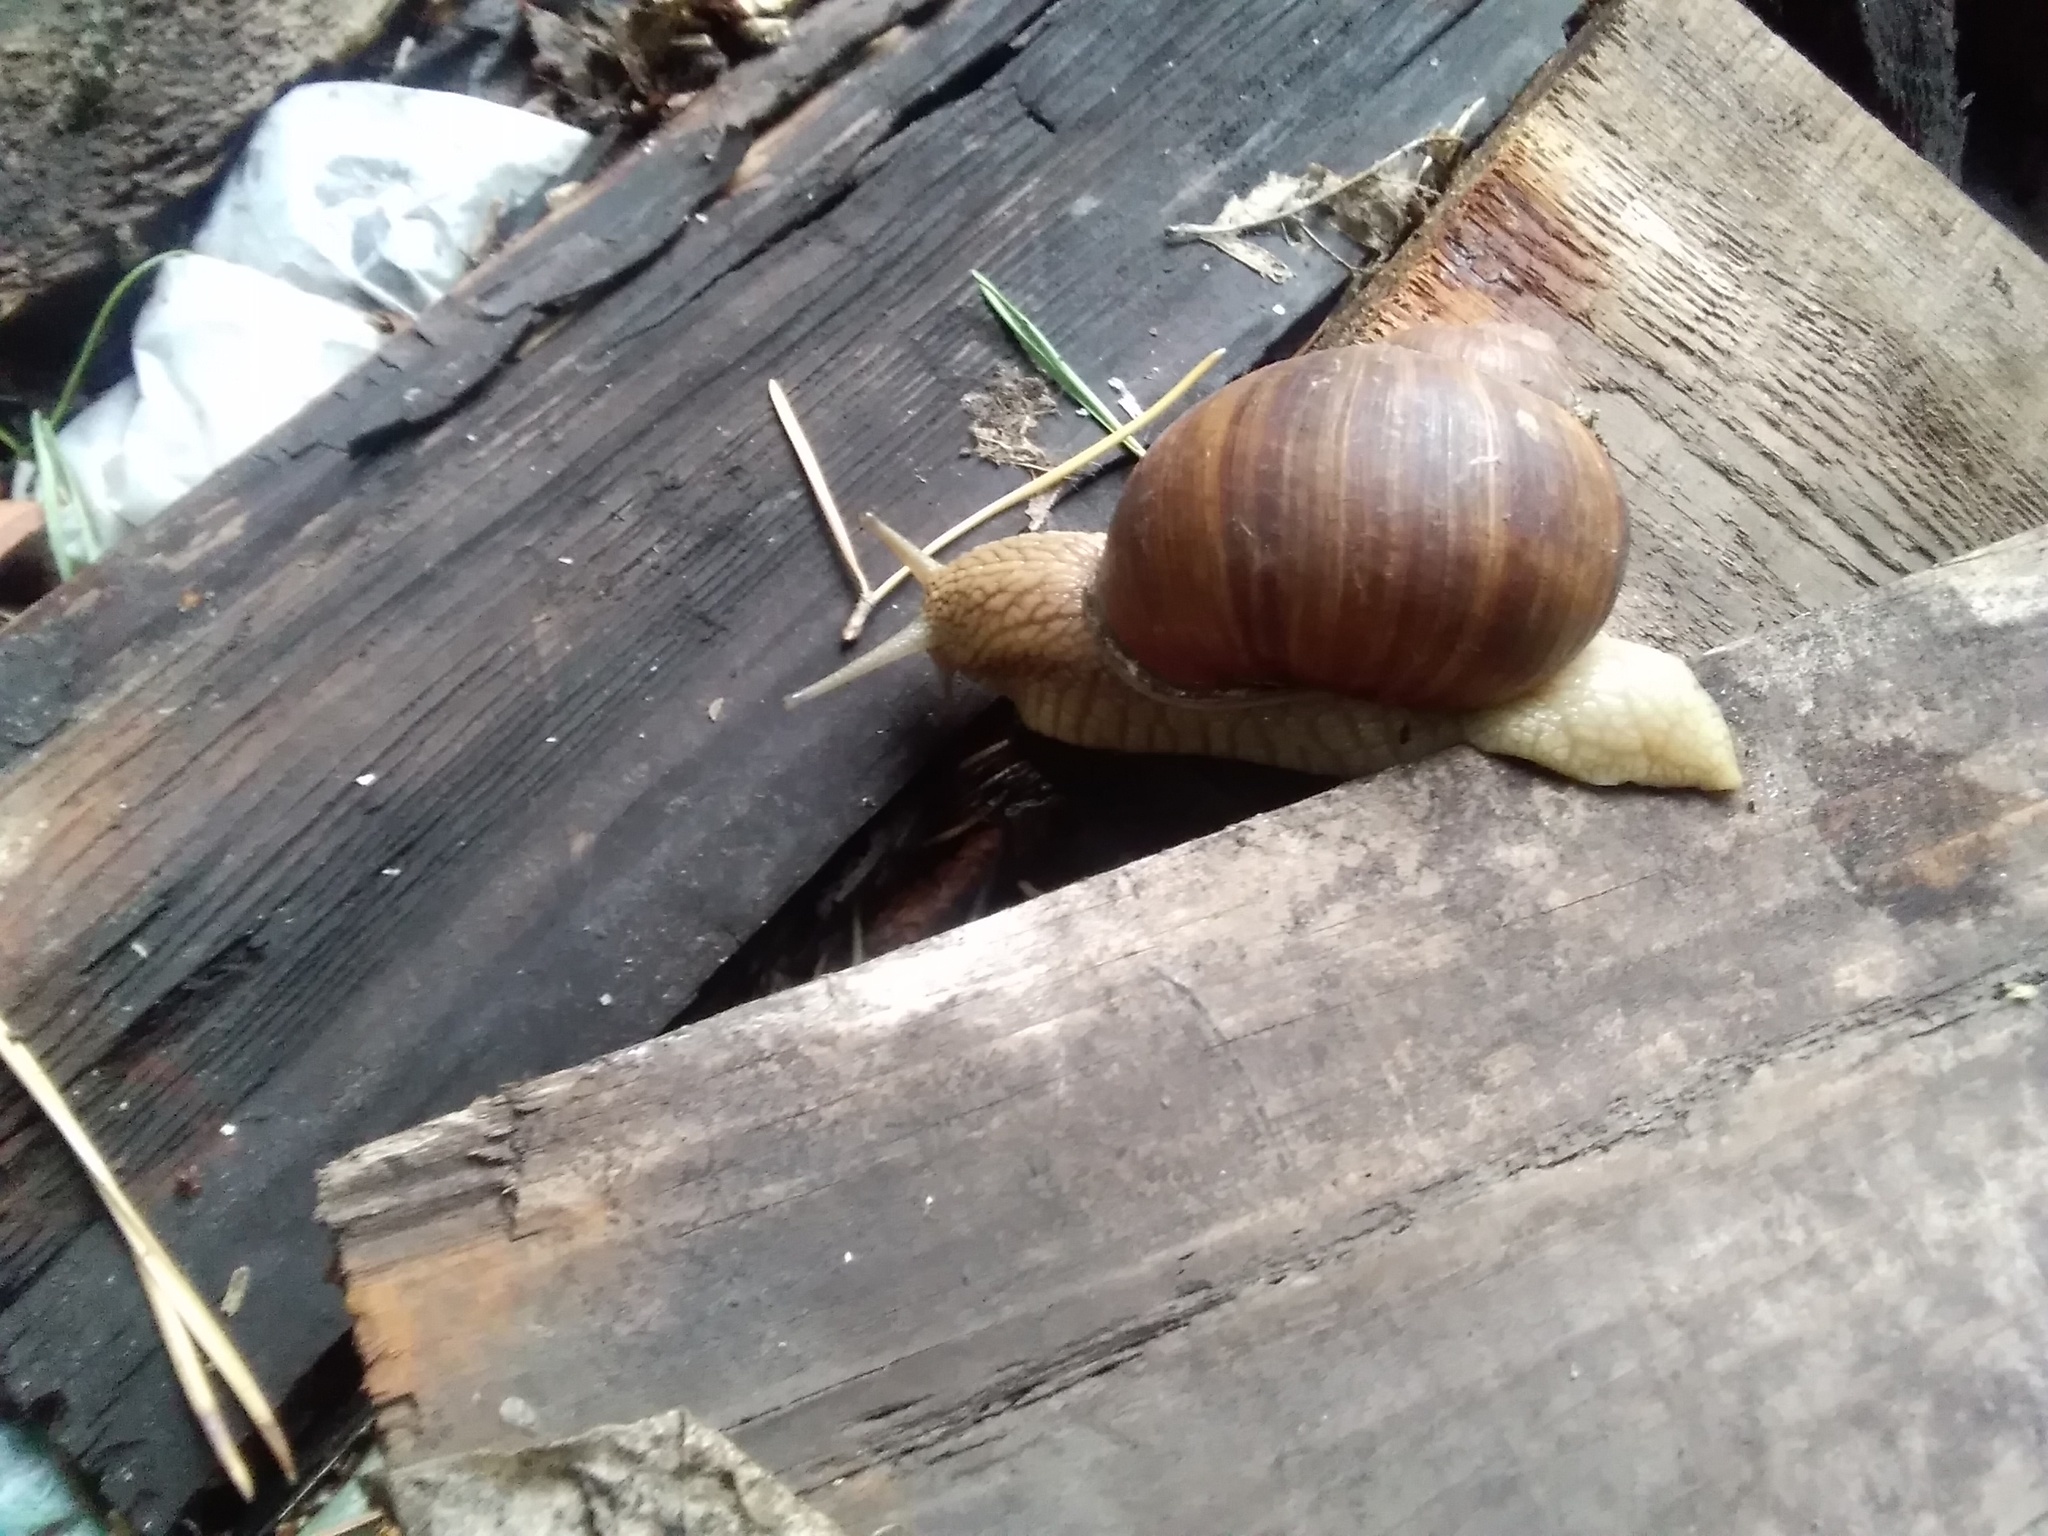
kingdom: Animalia
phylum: Mollusca
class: Gastropoda
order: Stylommatophora
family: Helicidae
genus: Helix
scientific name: Helix pomatia
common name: Roman snail
